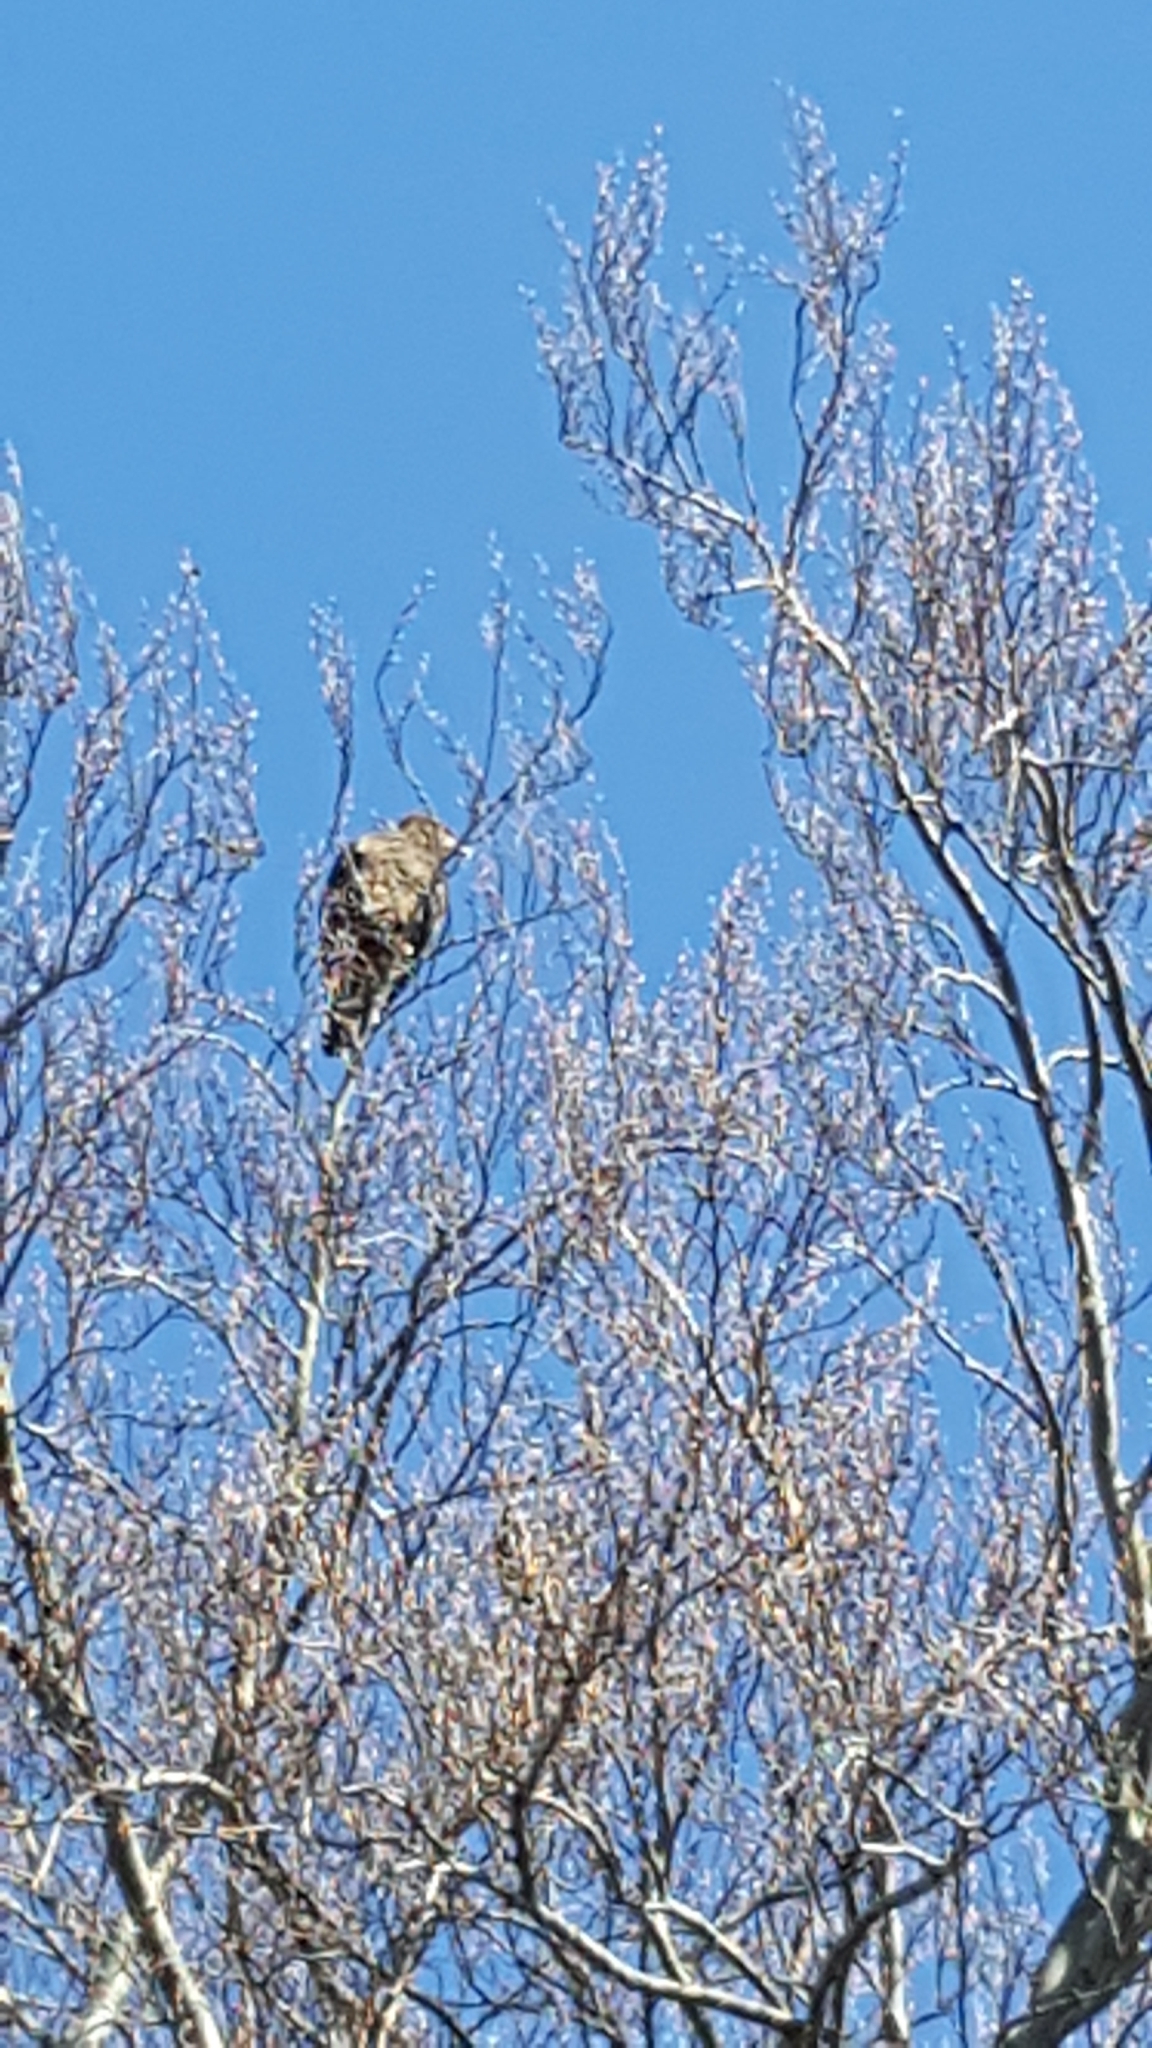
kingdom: Animalia
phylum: Chordata
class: Aves
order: Accipitriformes
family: Accipitridae
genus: Haliaeetus
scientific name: Haliaeetus leucocephalus
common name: Bald eagle
